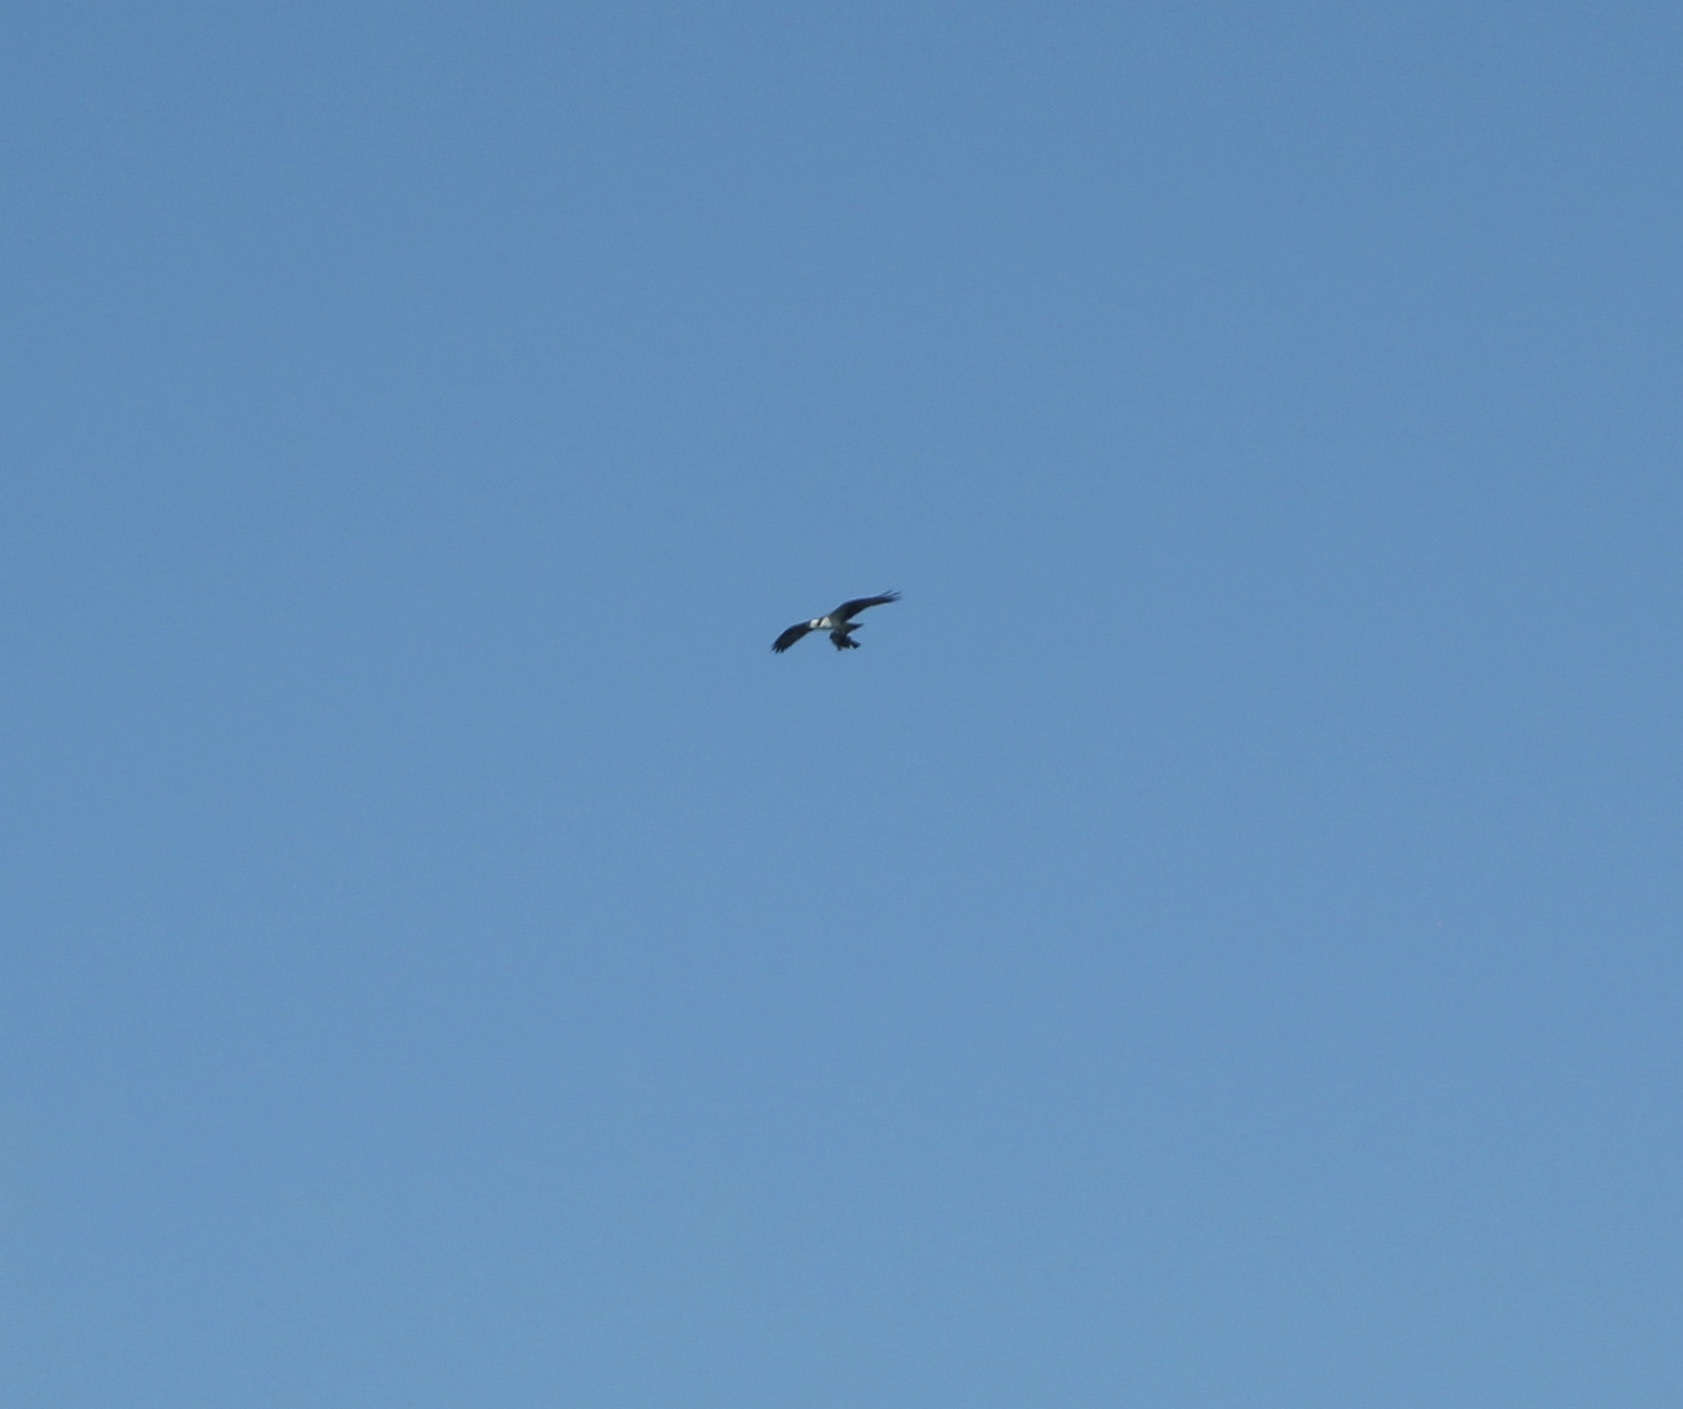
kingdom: Animalia
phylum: Chordata
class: Aves
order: Accipitriformes
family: Pandionidae
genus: Pandion
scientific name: Pandion haliaetus
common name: Osprey
